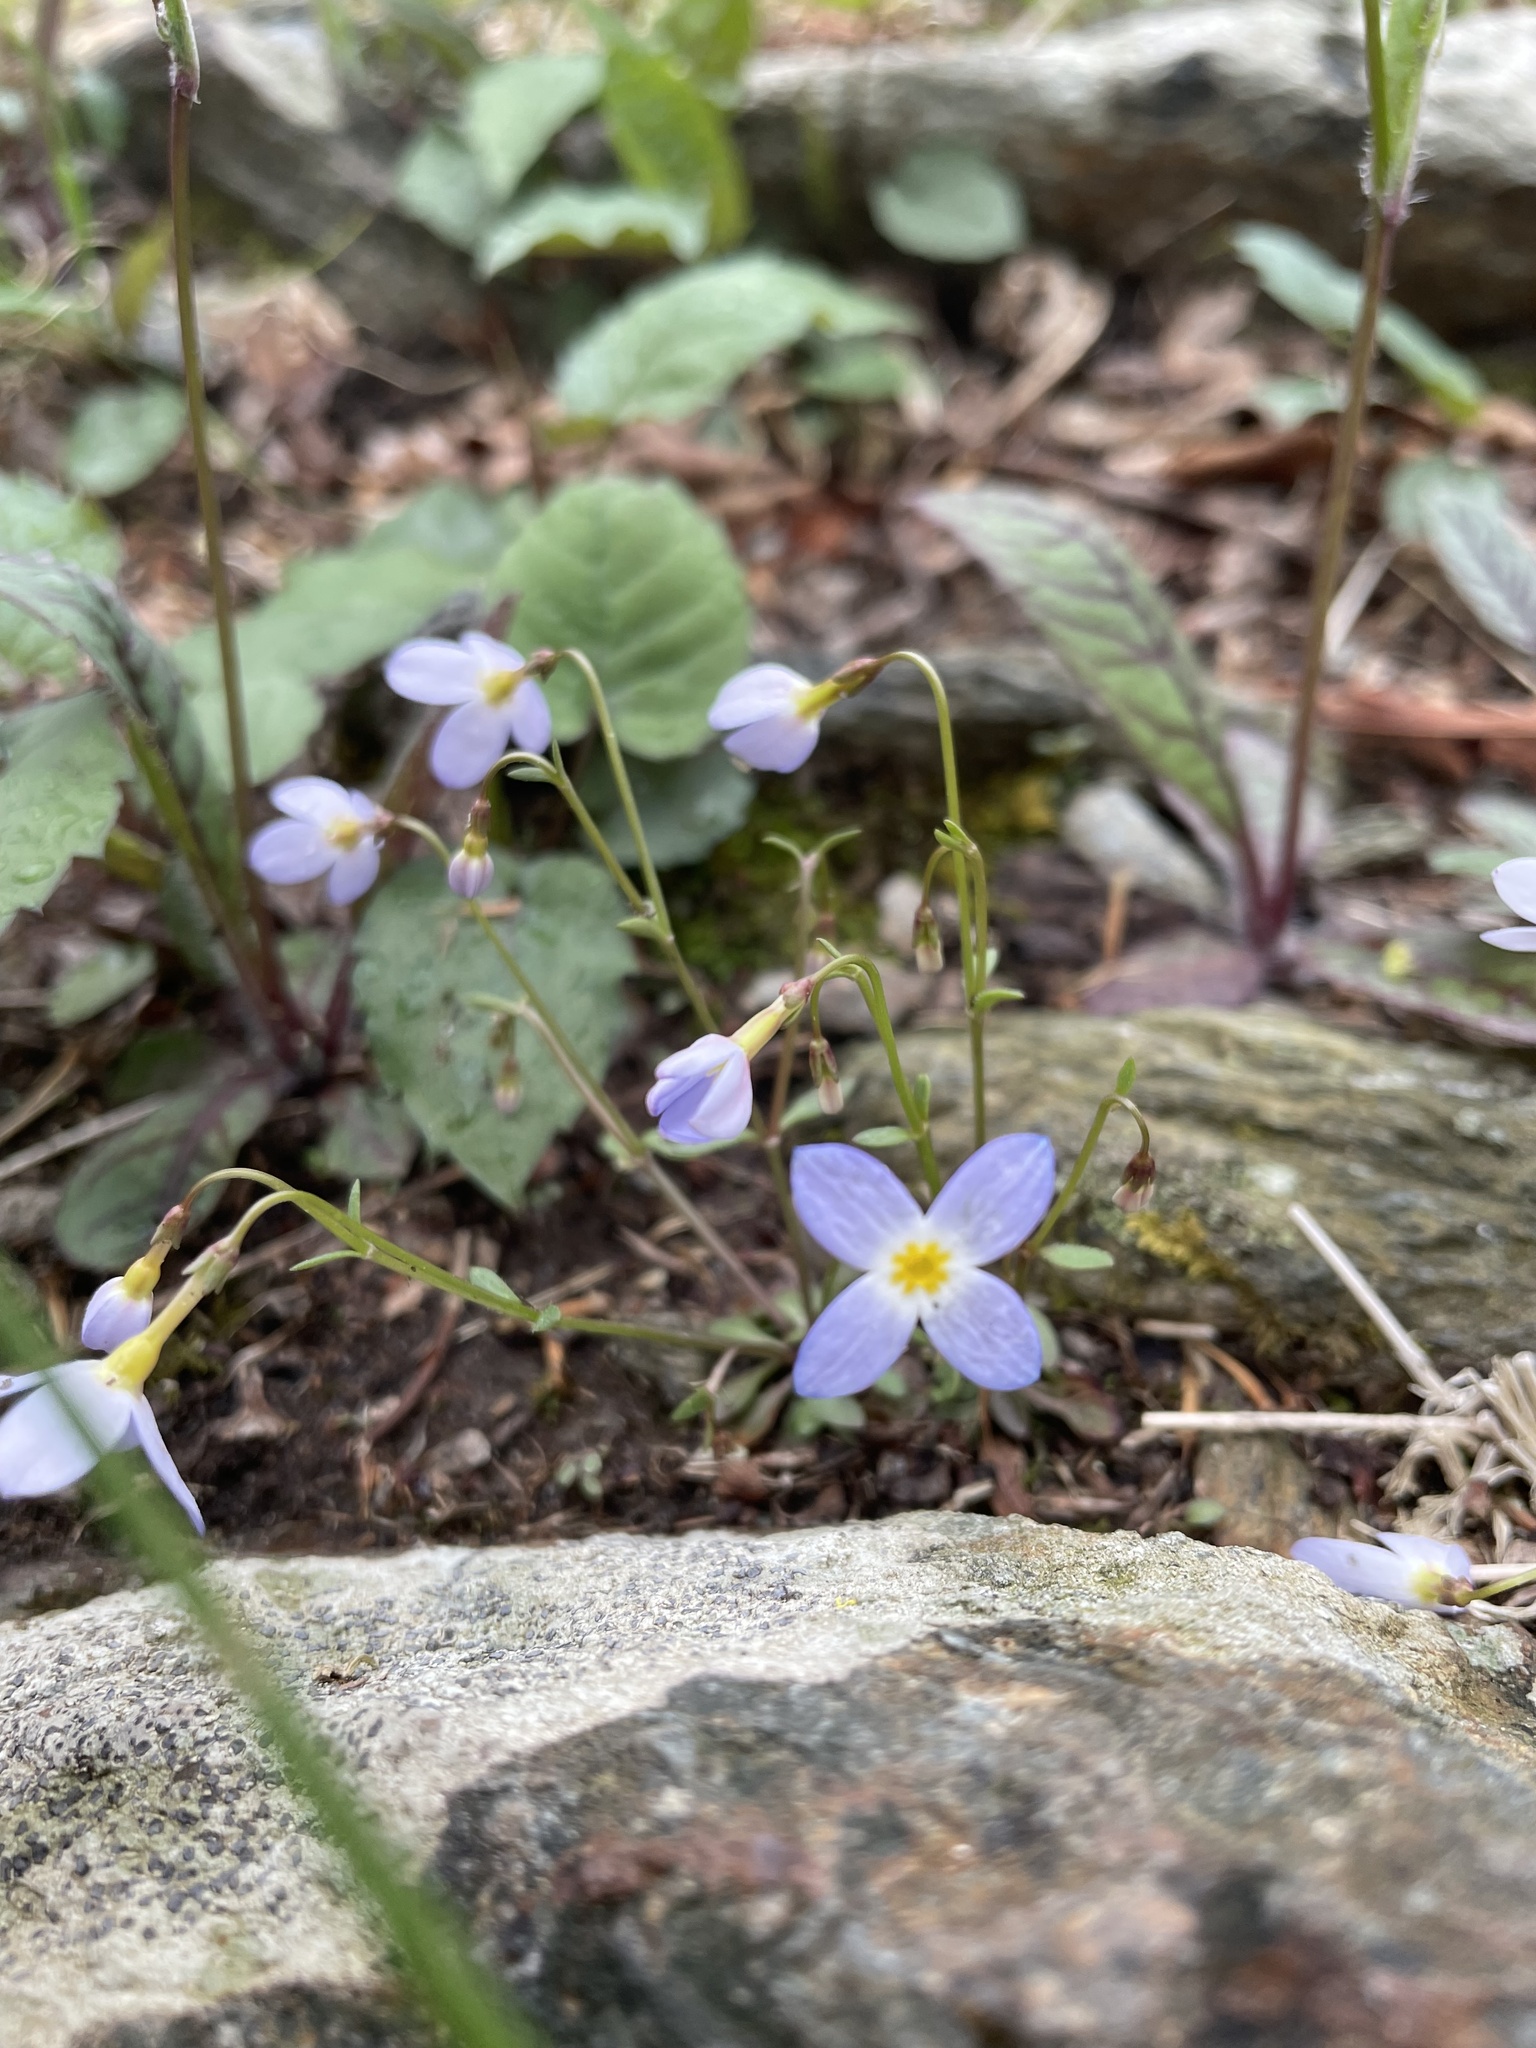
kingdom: Plantae
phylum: Tracheophyta
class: Magnoliopsida
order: Gentianales
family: Rubiaceae
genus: Houstonia
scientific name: Houstonia caerulea
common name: Bluets
